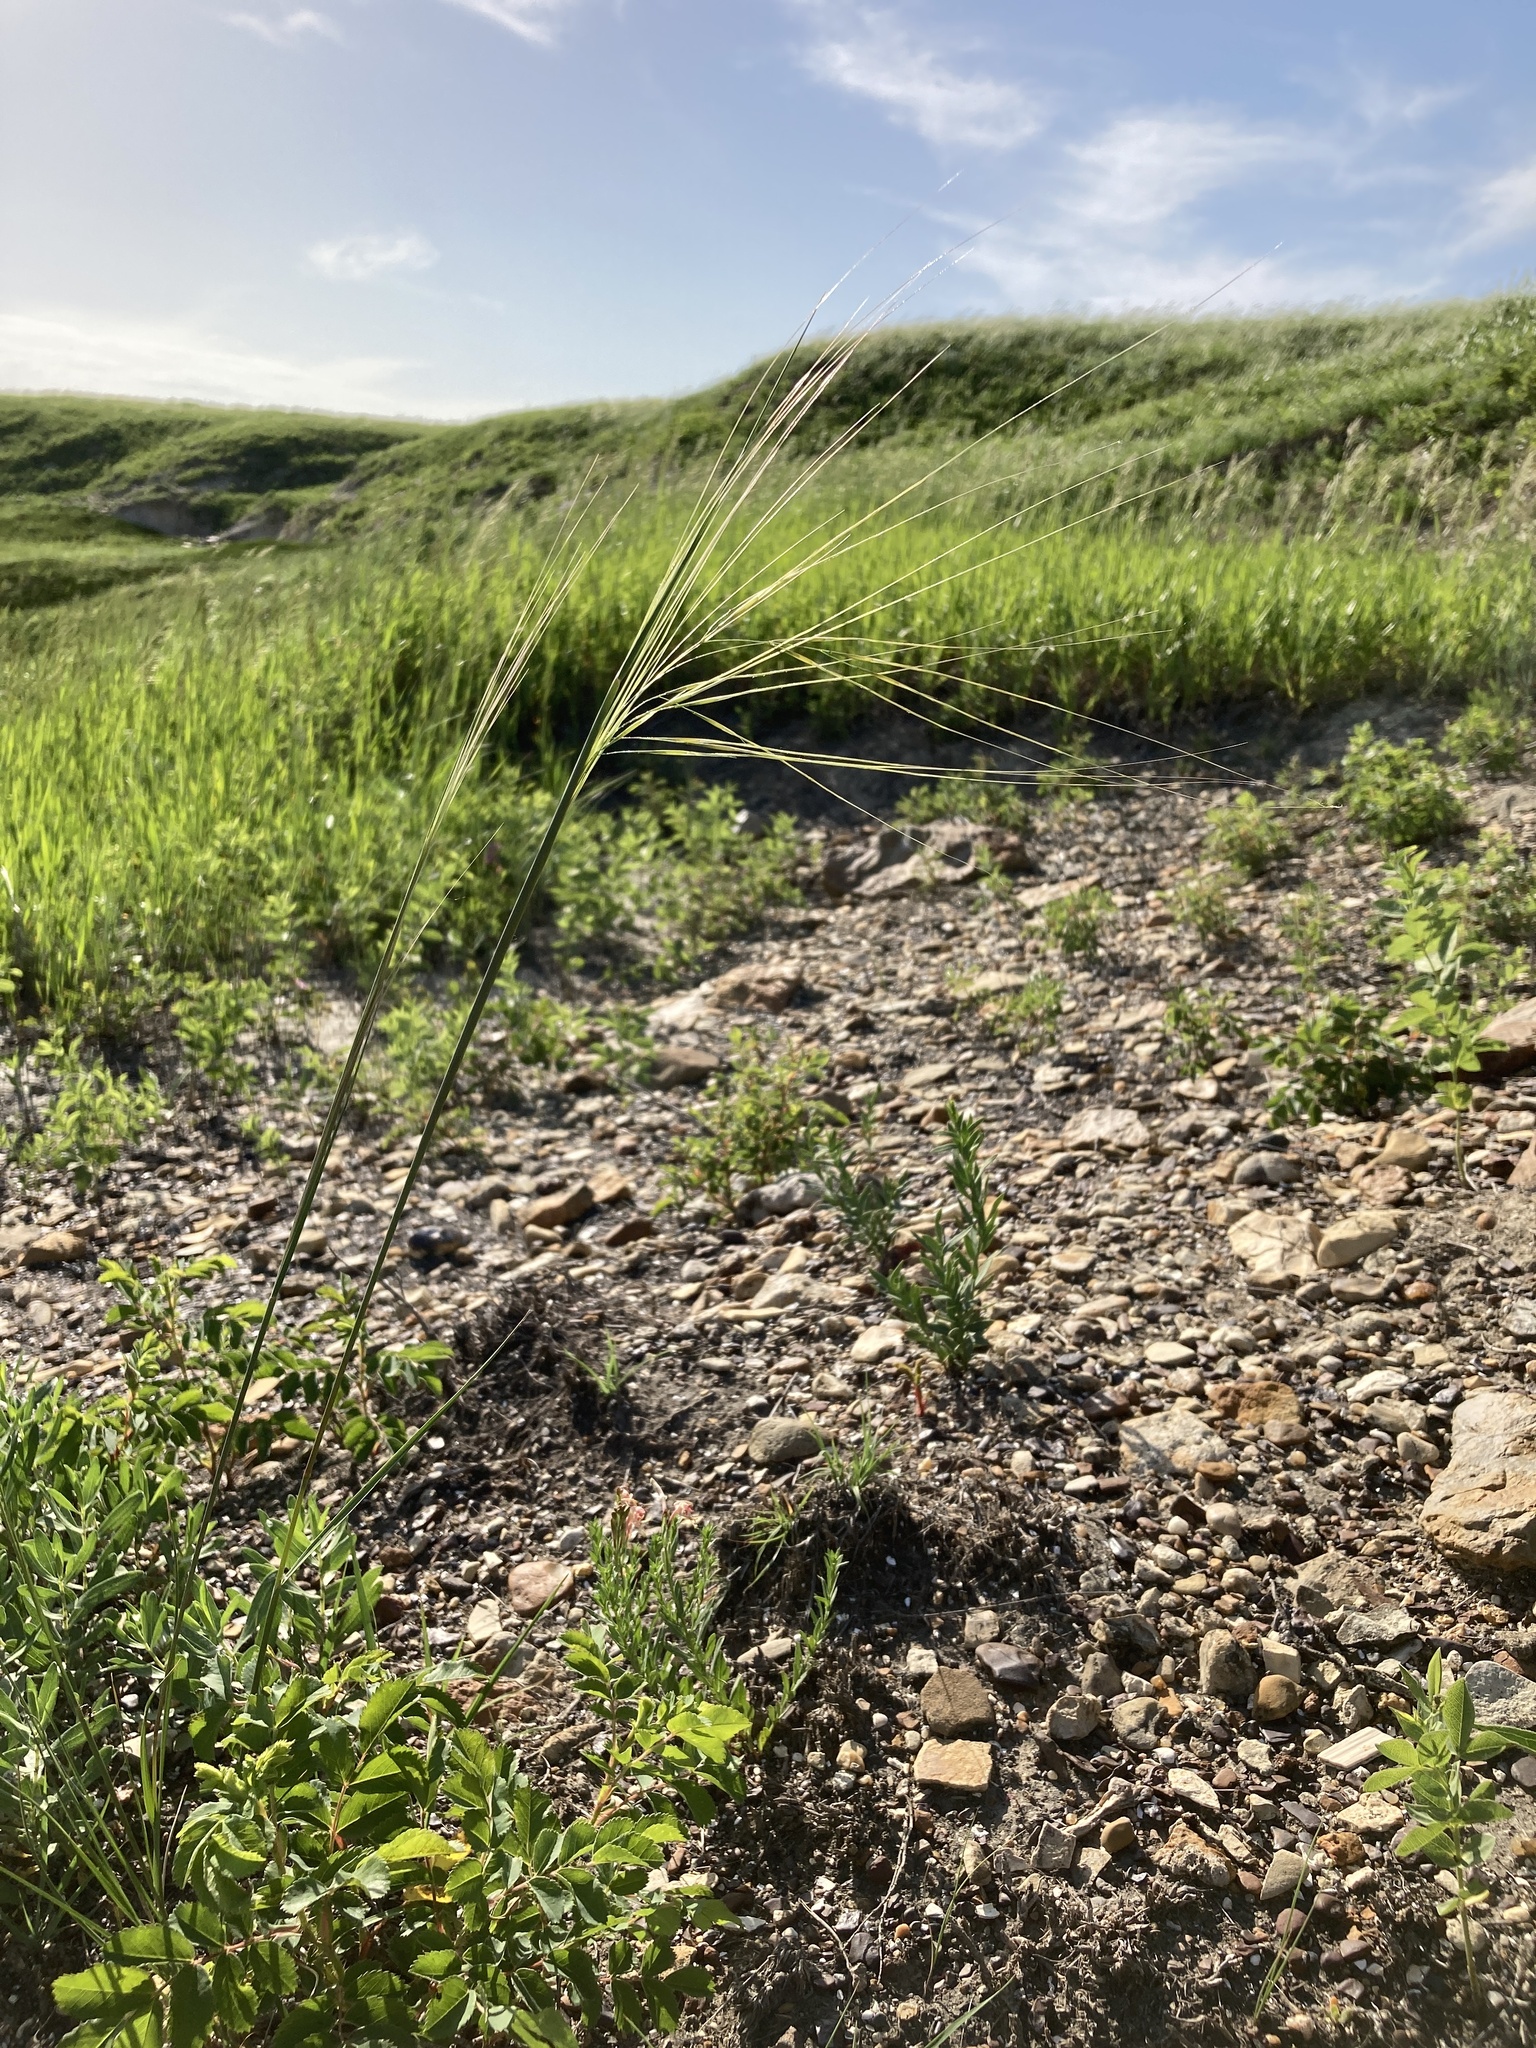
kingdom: Plantae
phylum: Tracheophyta
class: Liliopsida
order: Poales
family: Poaceae
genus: Hesperostipa
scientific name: Hesperostipa comata
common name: Needle-and-thread grass
